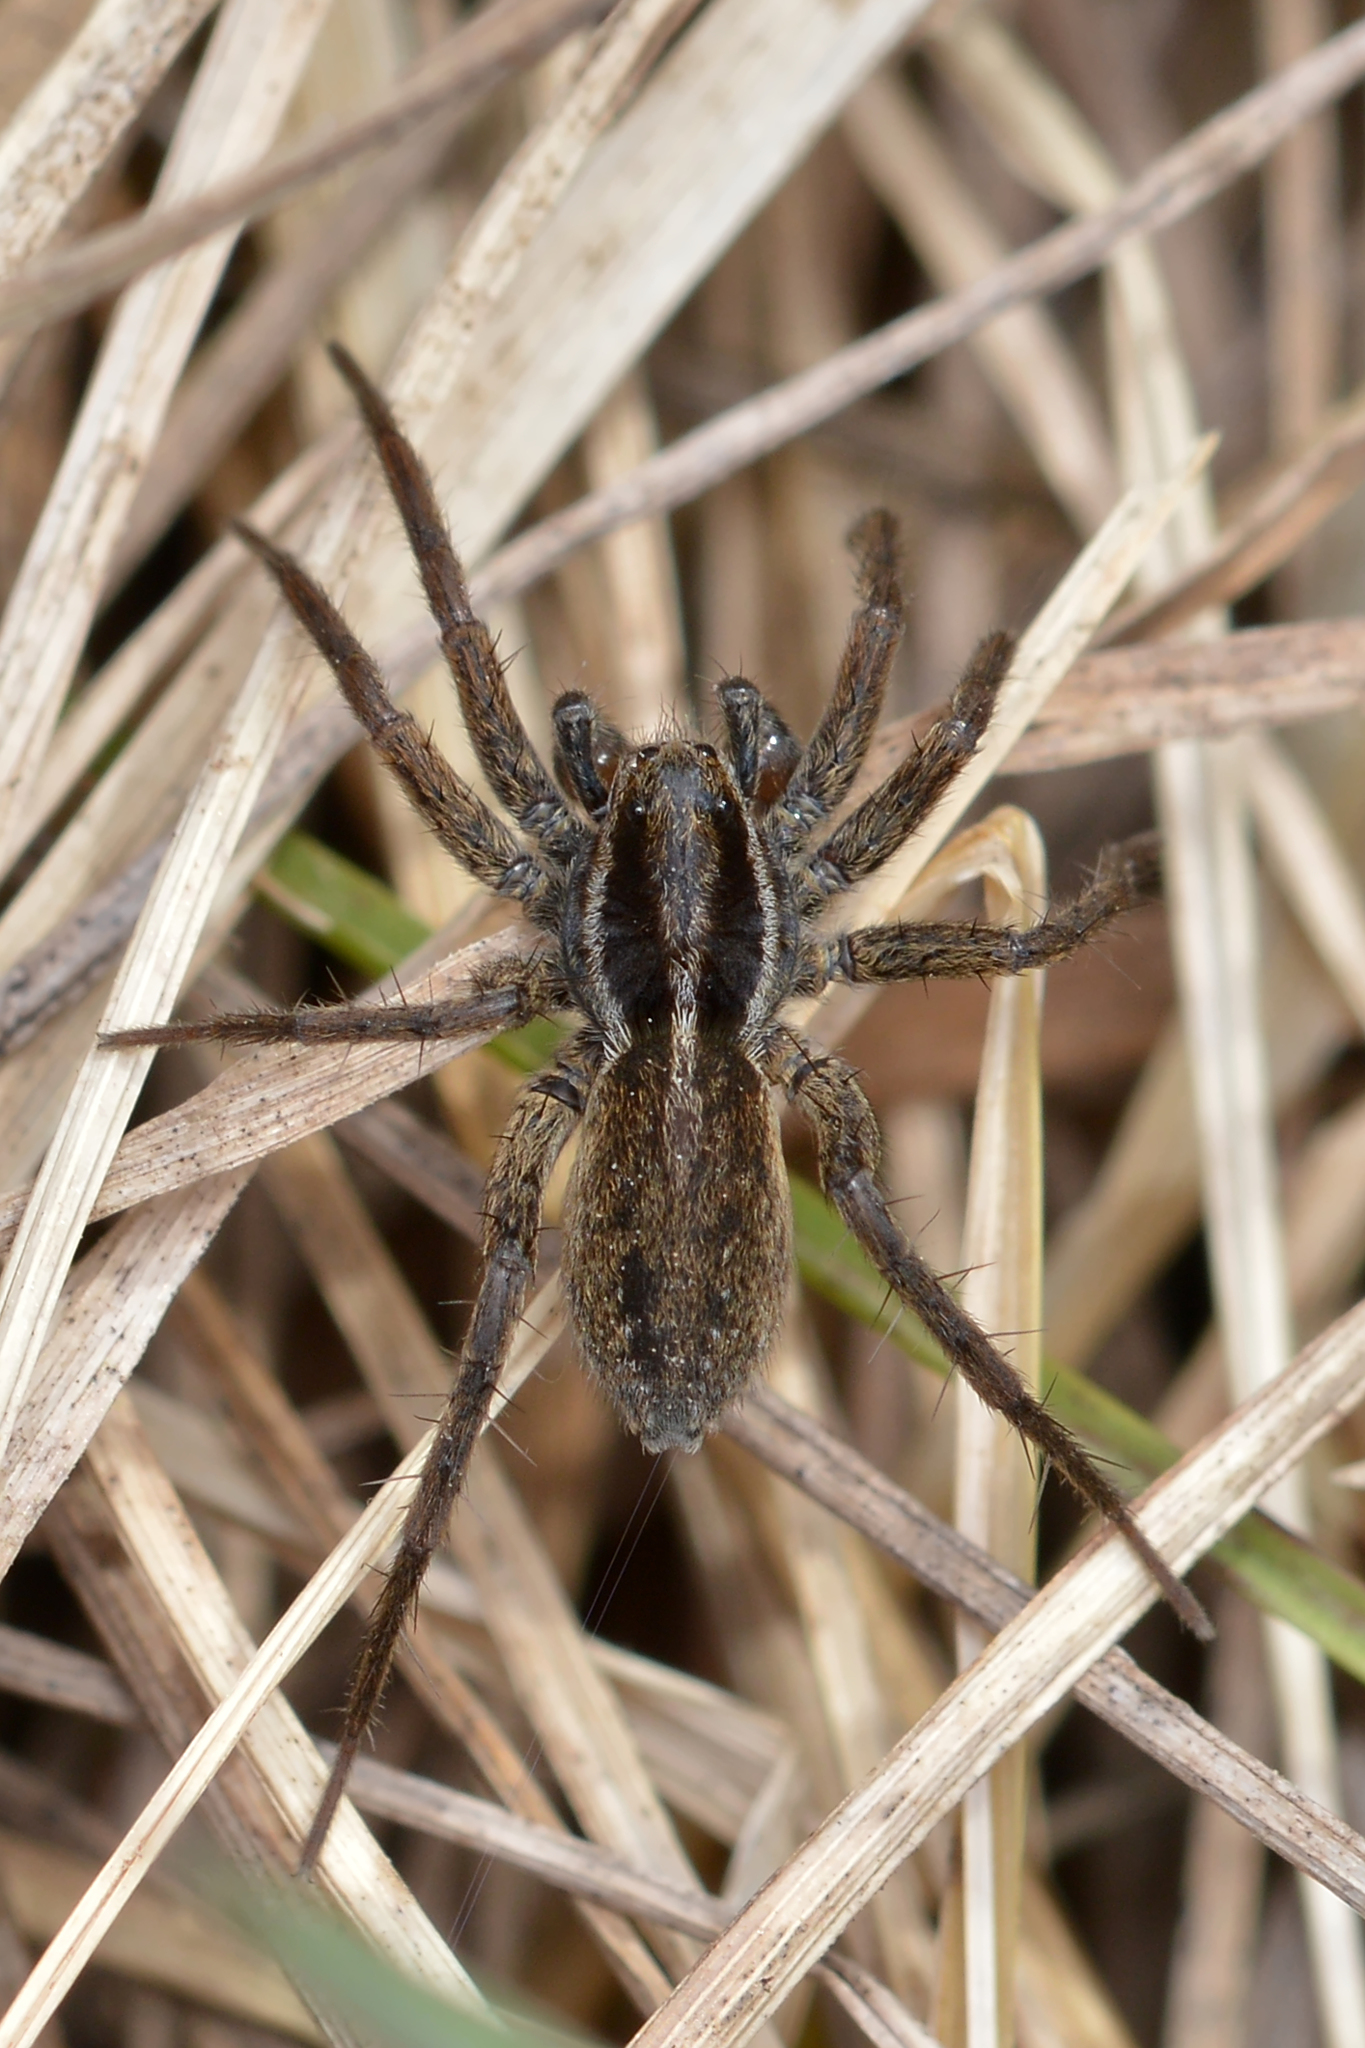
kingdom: Animalia
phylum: Arthropoda
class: Arachnida
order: Araneae
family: Lycosidae
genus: Pardosa
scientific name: Pardosa modica
